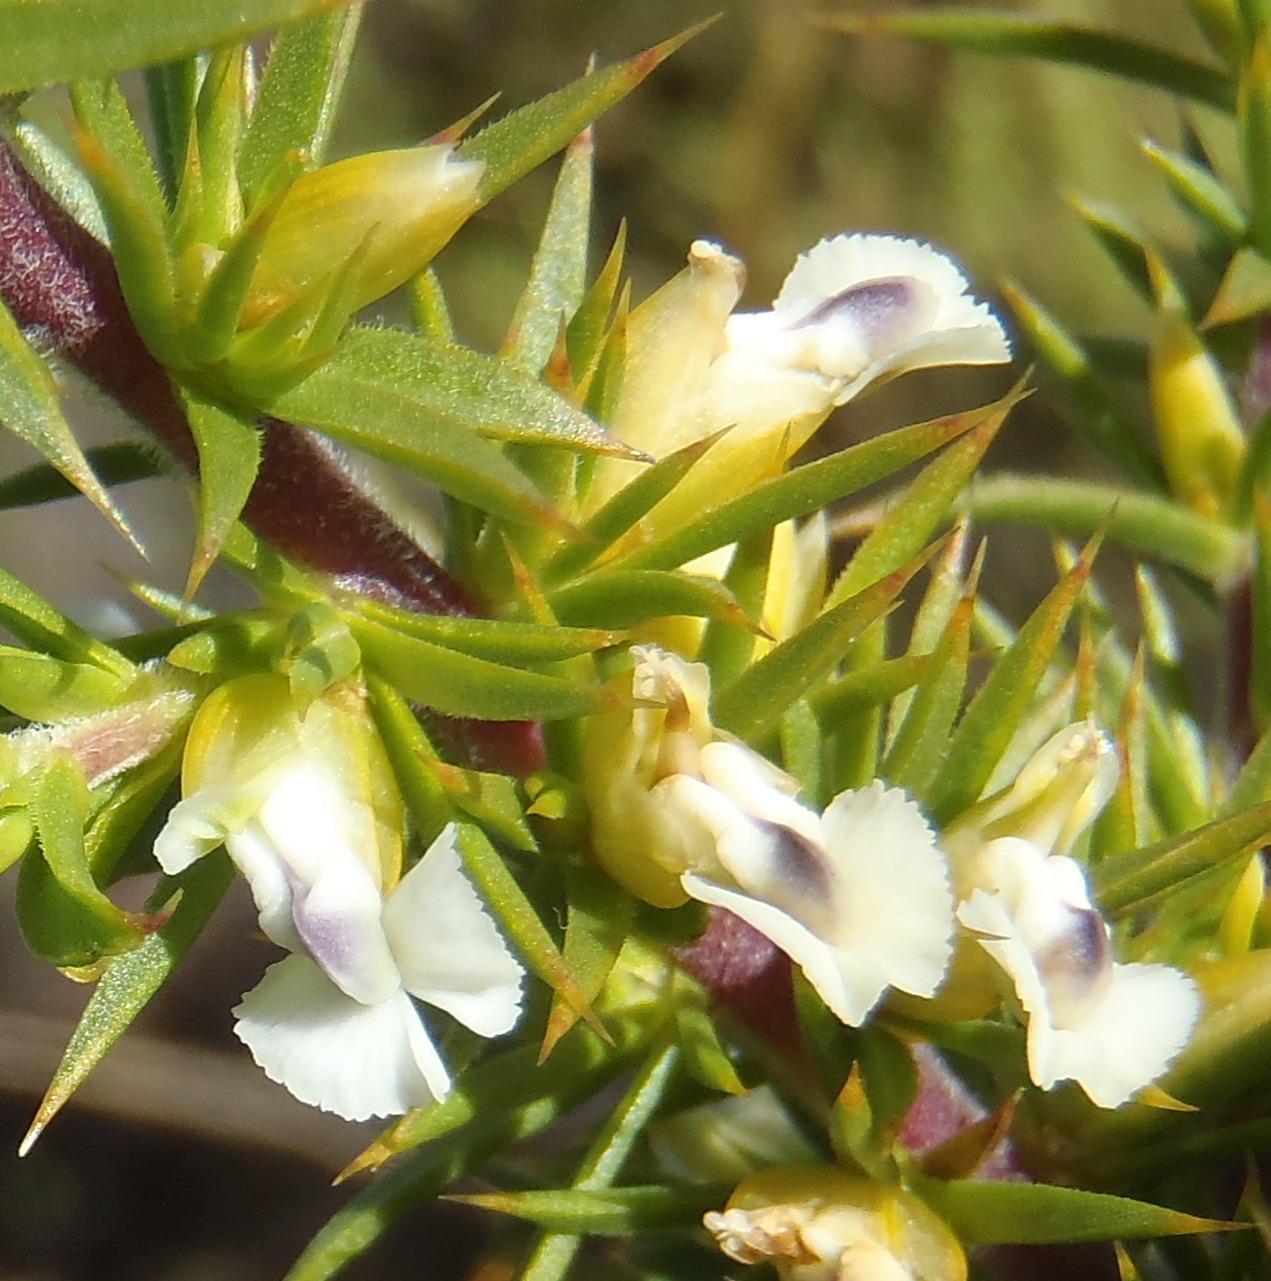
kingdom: Plantae
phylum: Tracheophyta
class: Magnoliopsida
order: Fabales
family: Polygalaceae
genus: Muraltia
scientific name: Muraltia ericifolia
